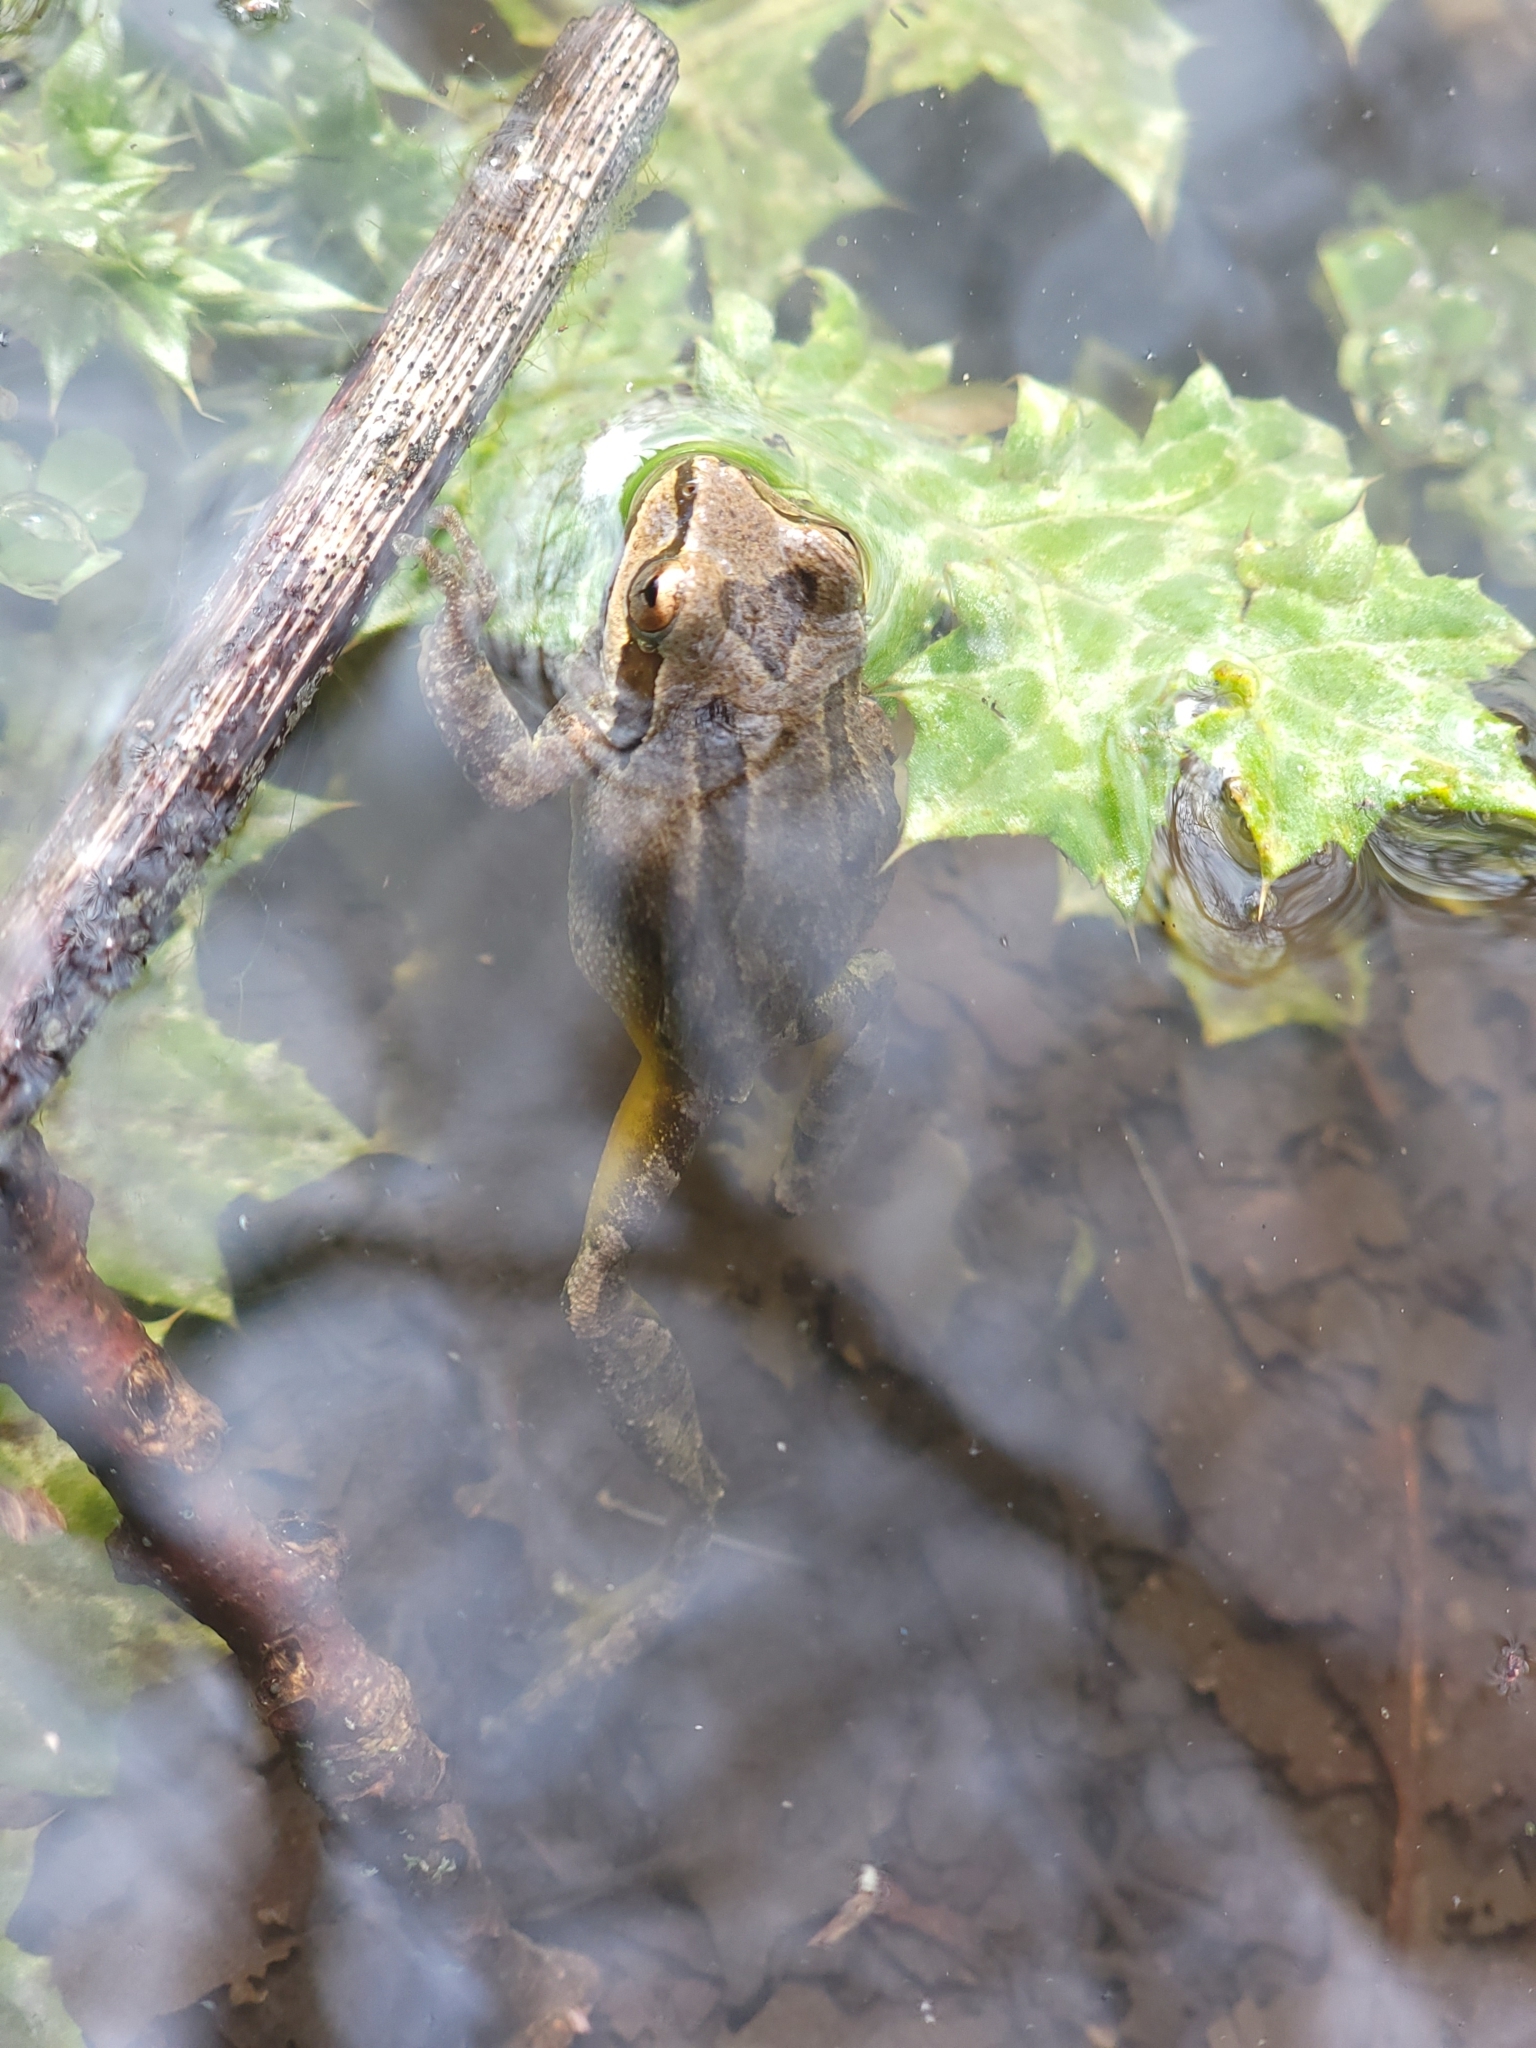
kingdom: Animalia
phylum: Chordata
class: Amphibia
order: Anura
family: Hylidae
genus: Pseudacris
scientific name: Pseudacris regilla
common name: Pacific chorus frog
